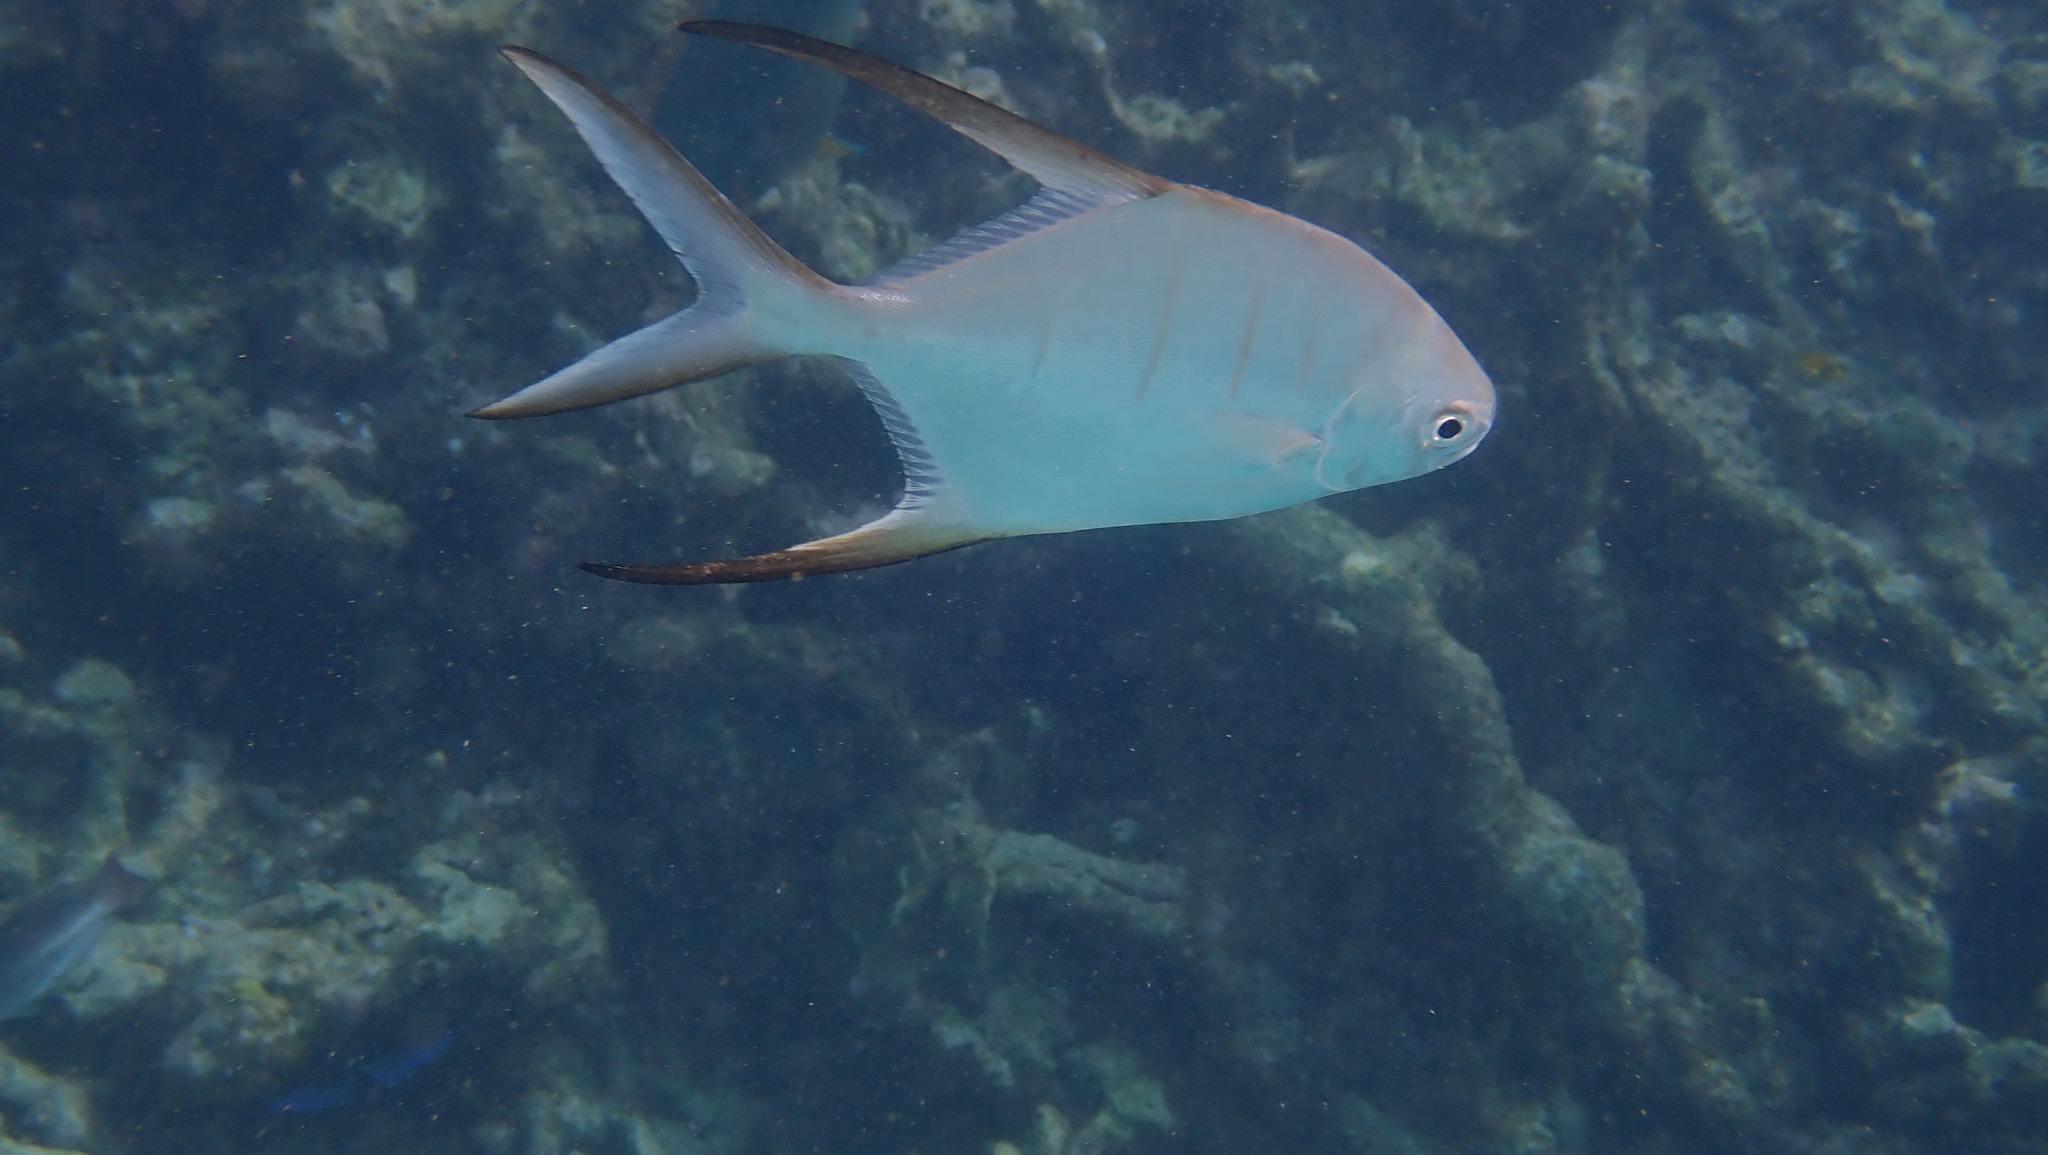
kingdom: Animalia
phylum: Chordata
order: Perciformes
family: Carangidae
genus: Trachinotus
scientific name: Trachinotus goodei
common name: Palometa
